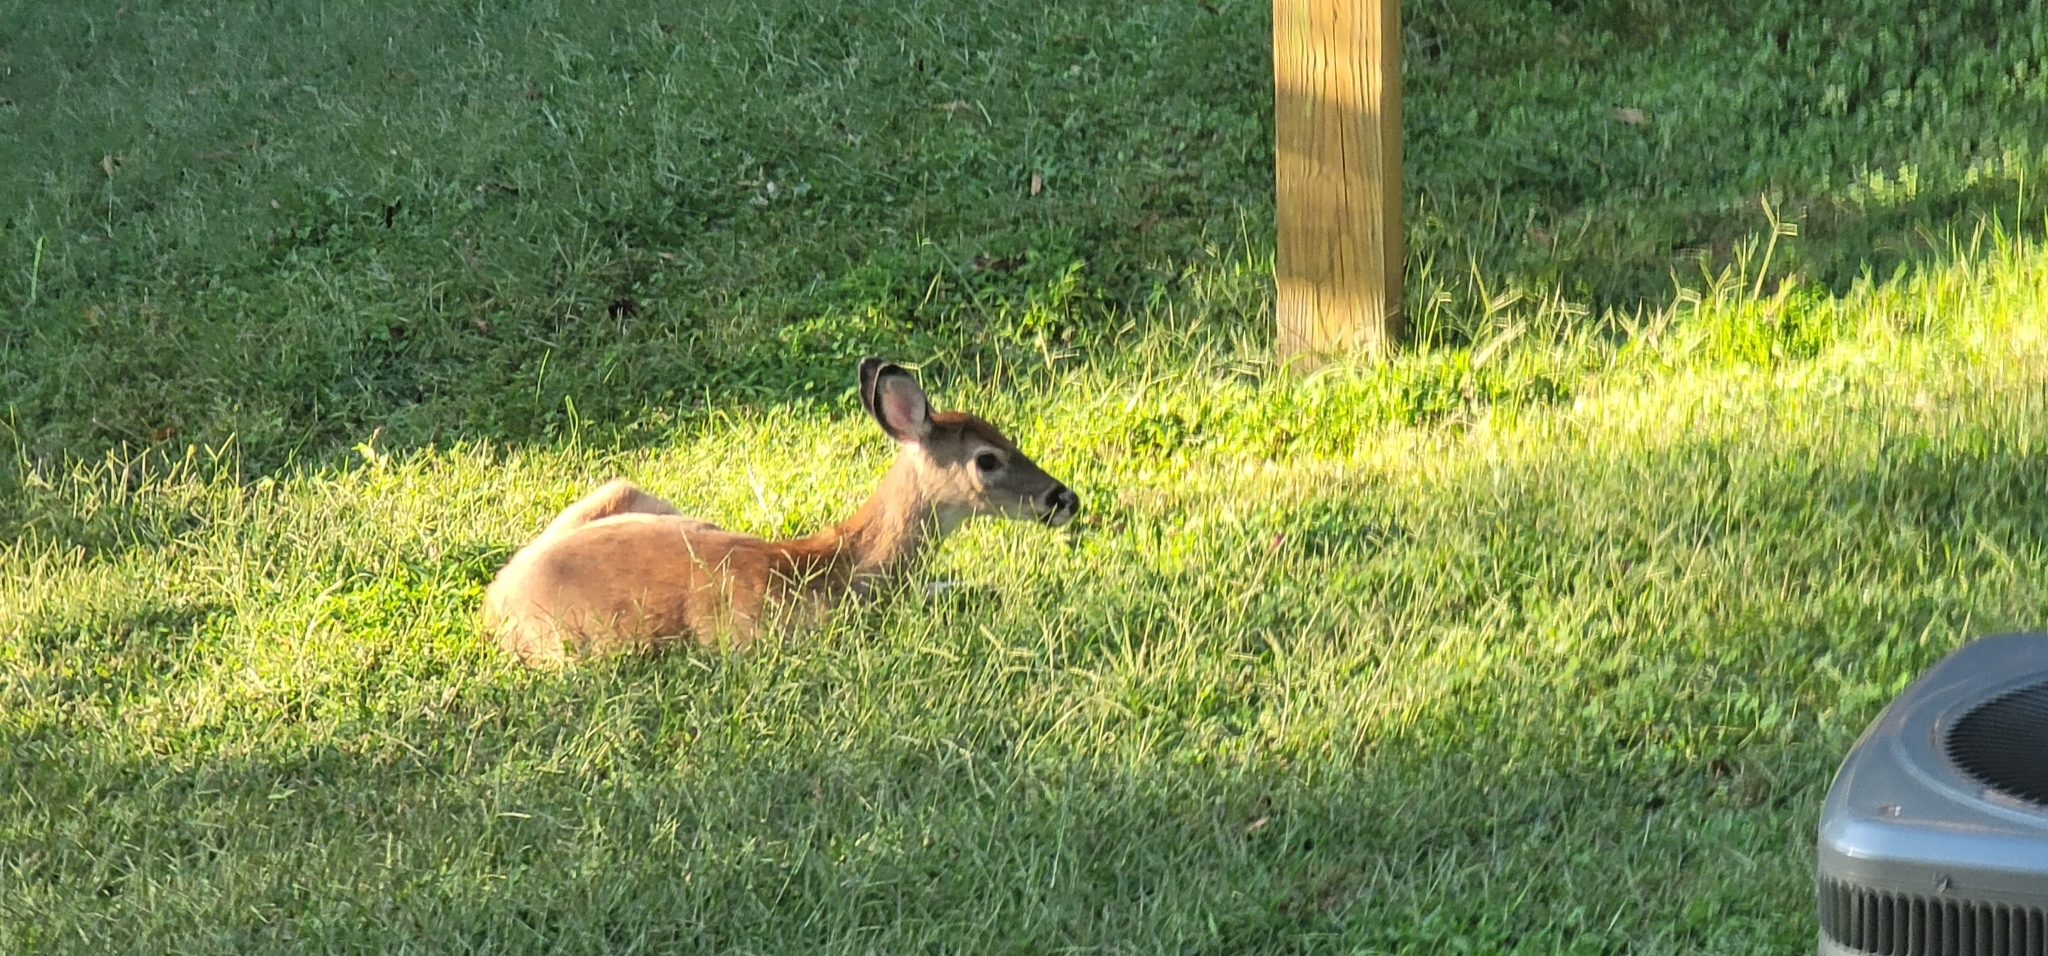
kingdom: Animalia
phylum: Chordata
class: Mammalia
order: Artiodactyla
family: Cervidae
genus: Odocoileus
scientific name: Odocoileus virginianus
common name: White-tailed deer
